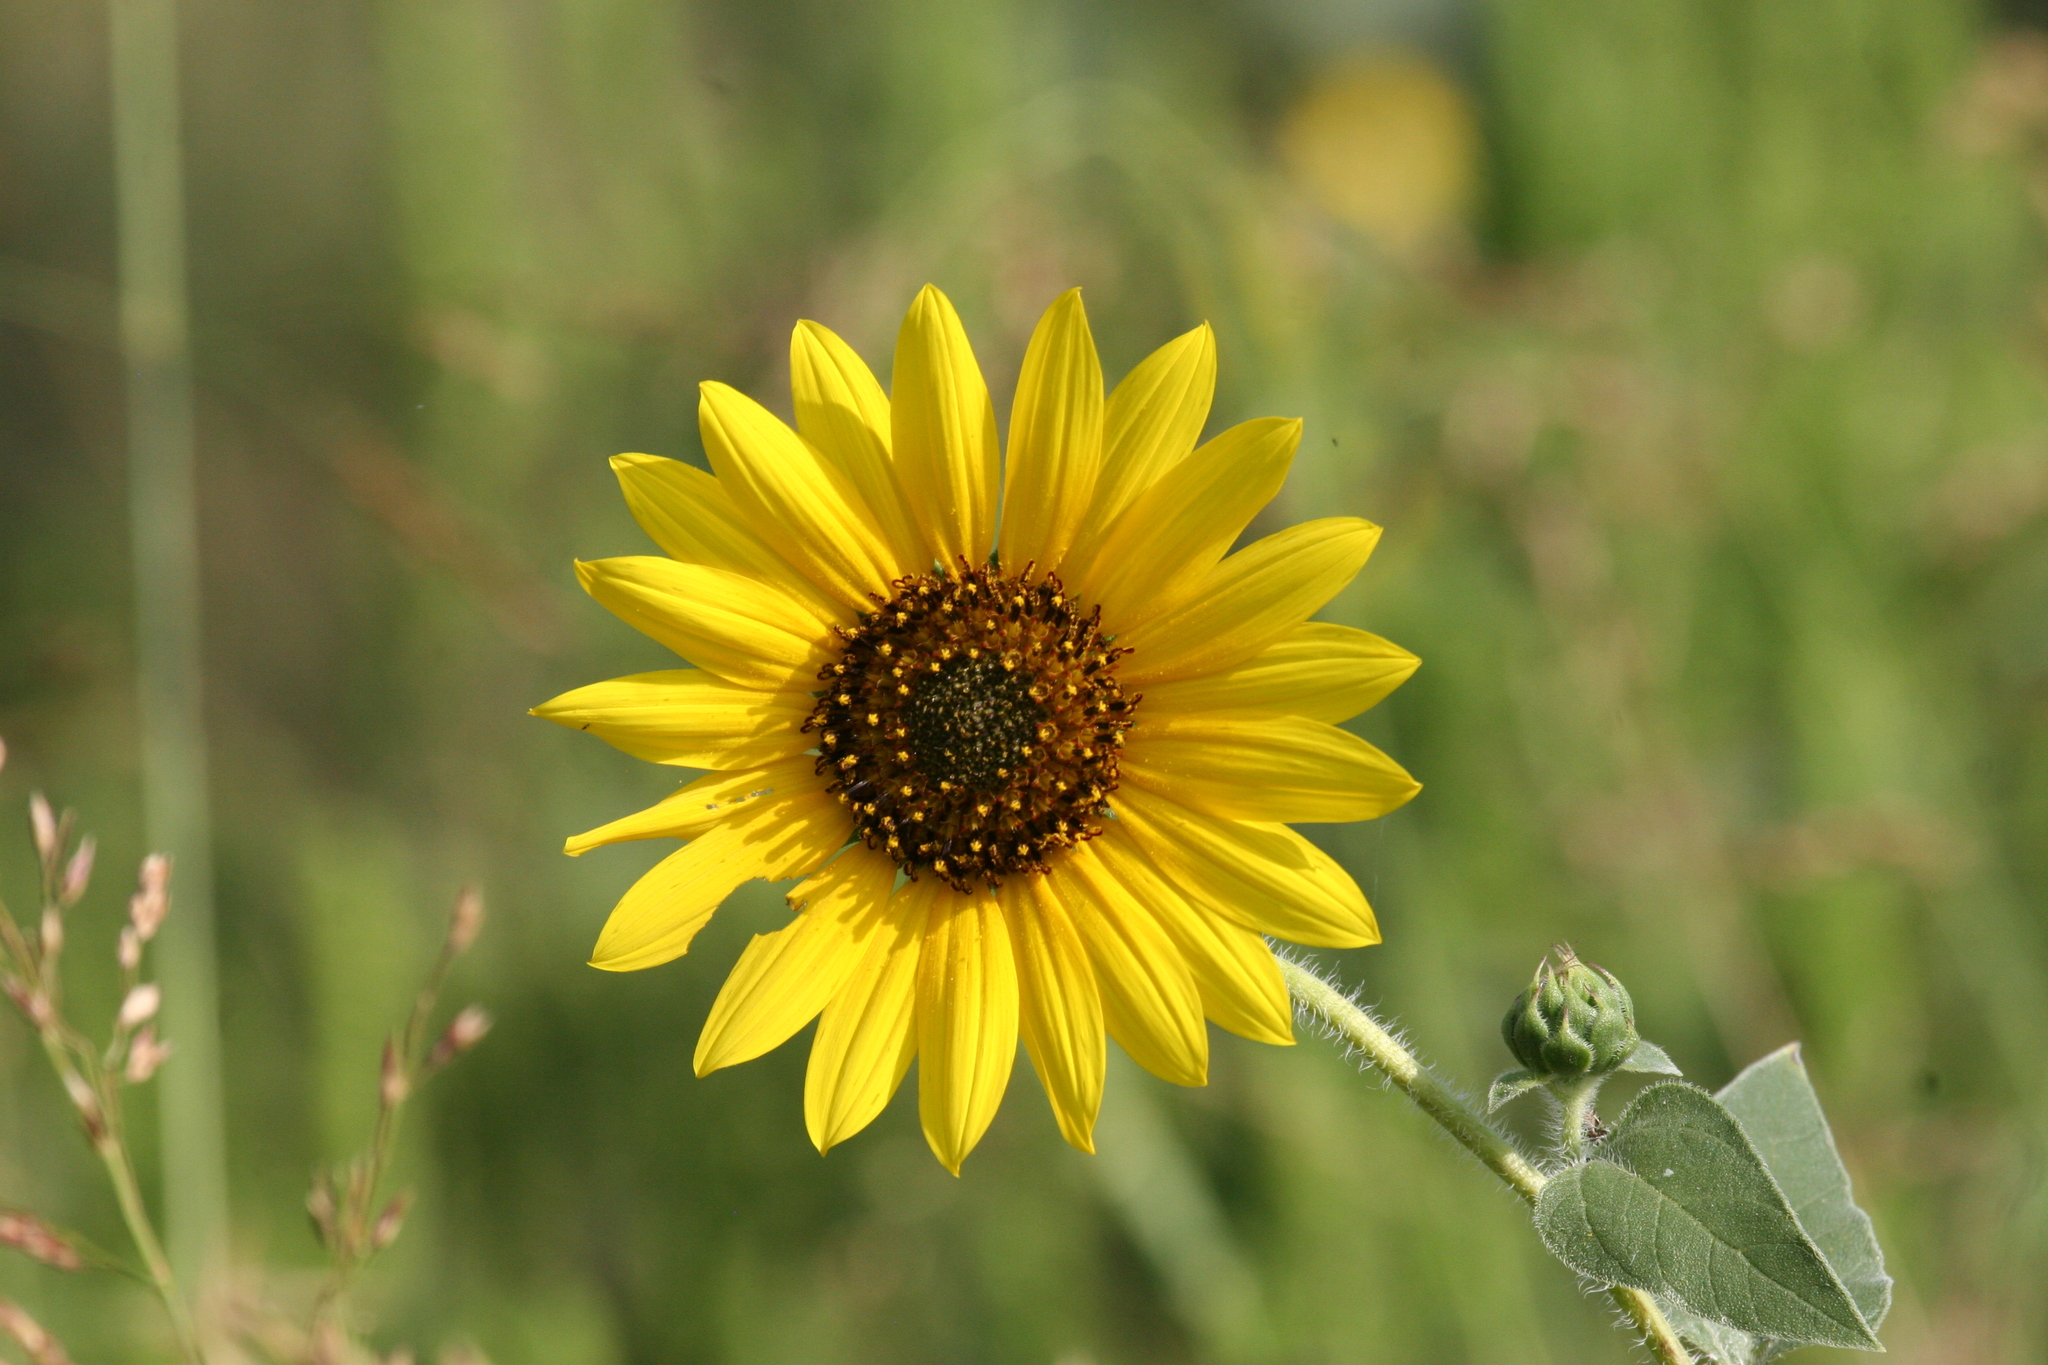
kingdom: Plantae
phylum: Tracheophyta
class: Magnoliopsida
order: Asterales
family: Asteraceae
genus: Helianthus
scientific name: Helianthus annuus
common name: Sunflower
